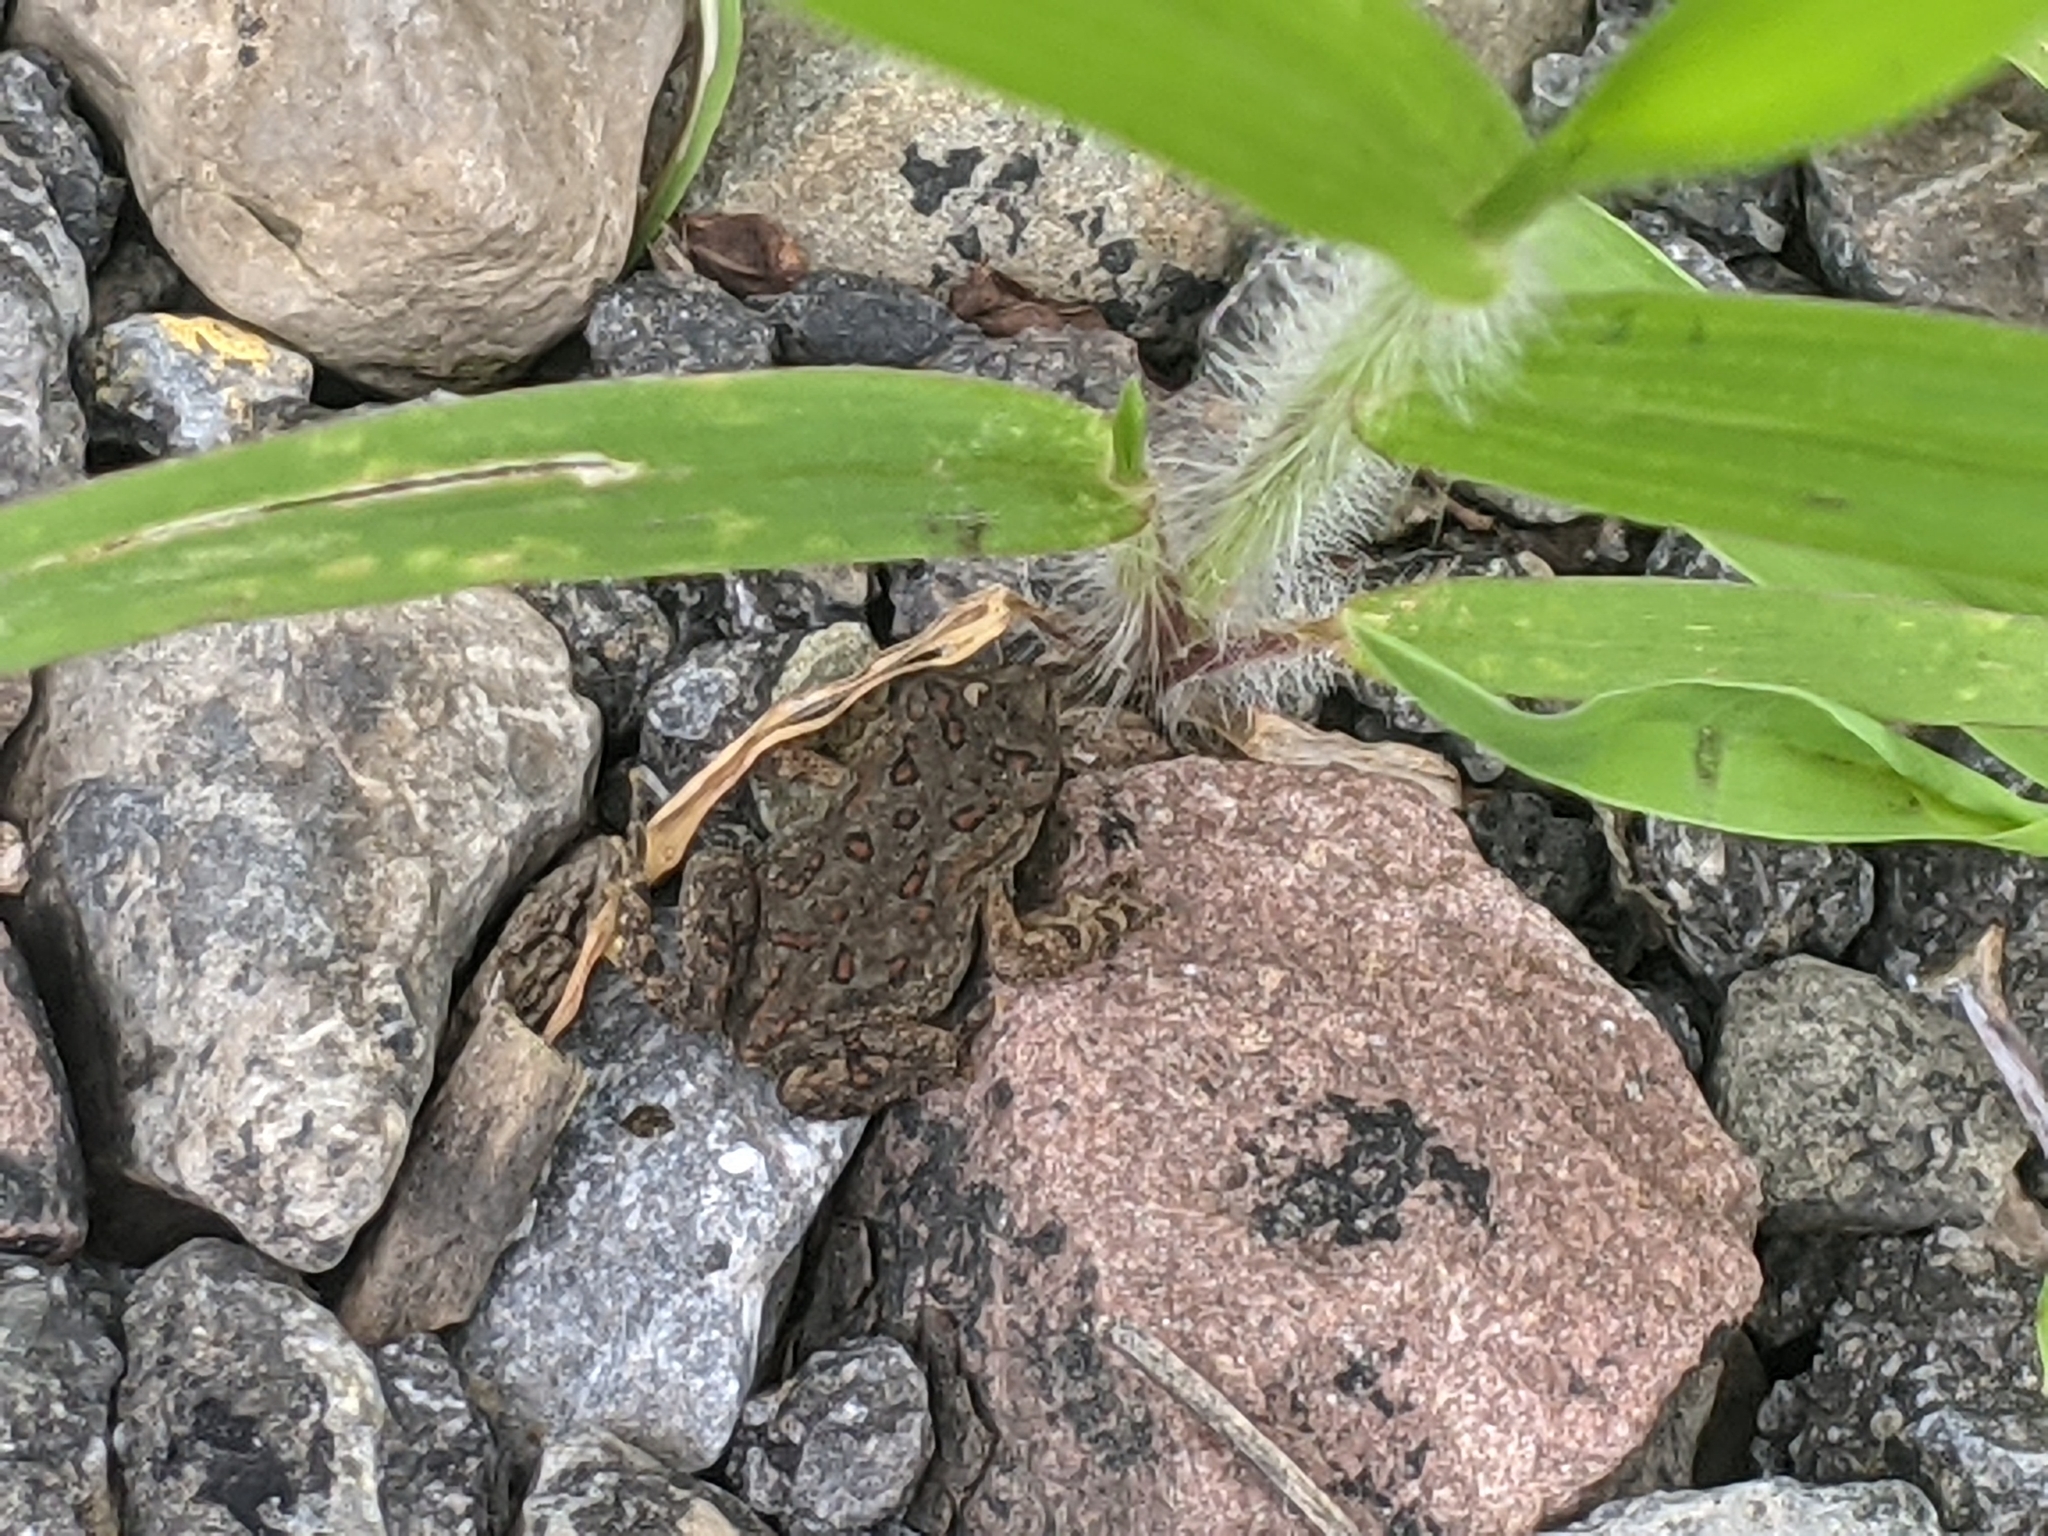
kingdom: Animalia
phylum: Chordata
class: Amphibia
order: Anura
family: Bufonidae
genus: Anaxyrus
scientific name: Anaxyrus americanus
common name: American toad
